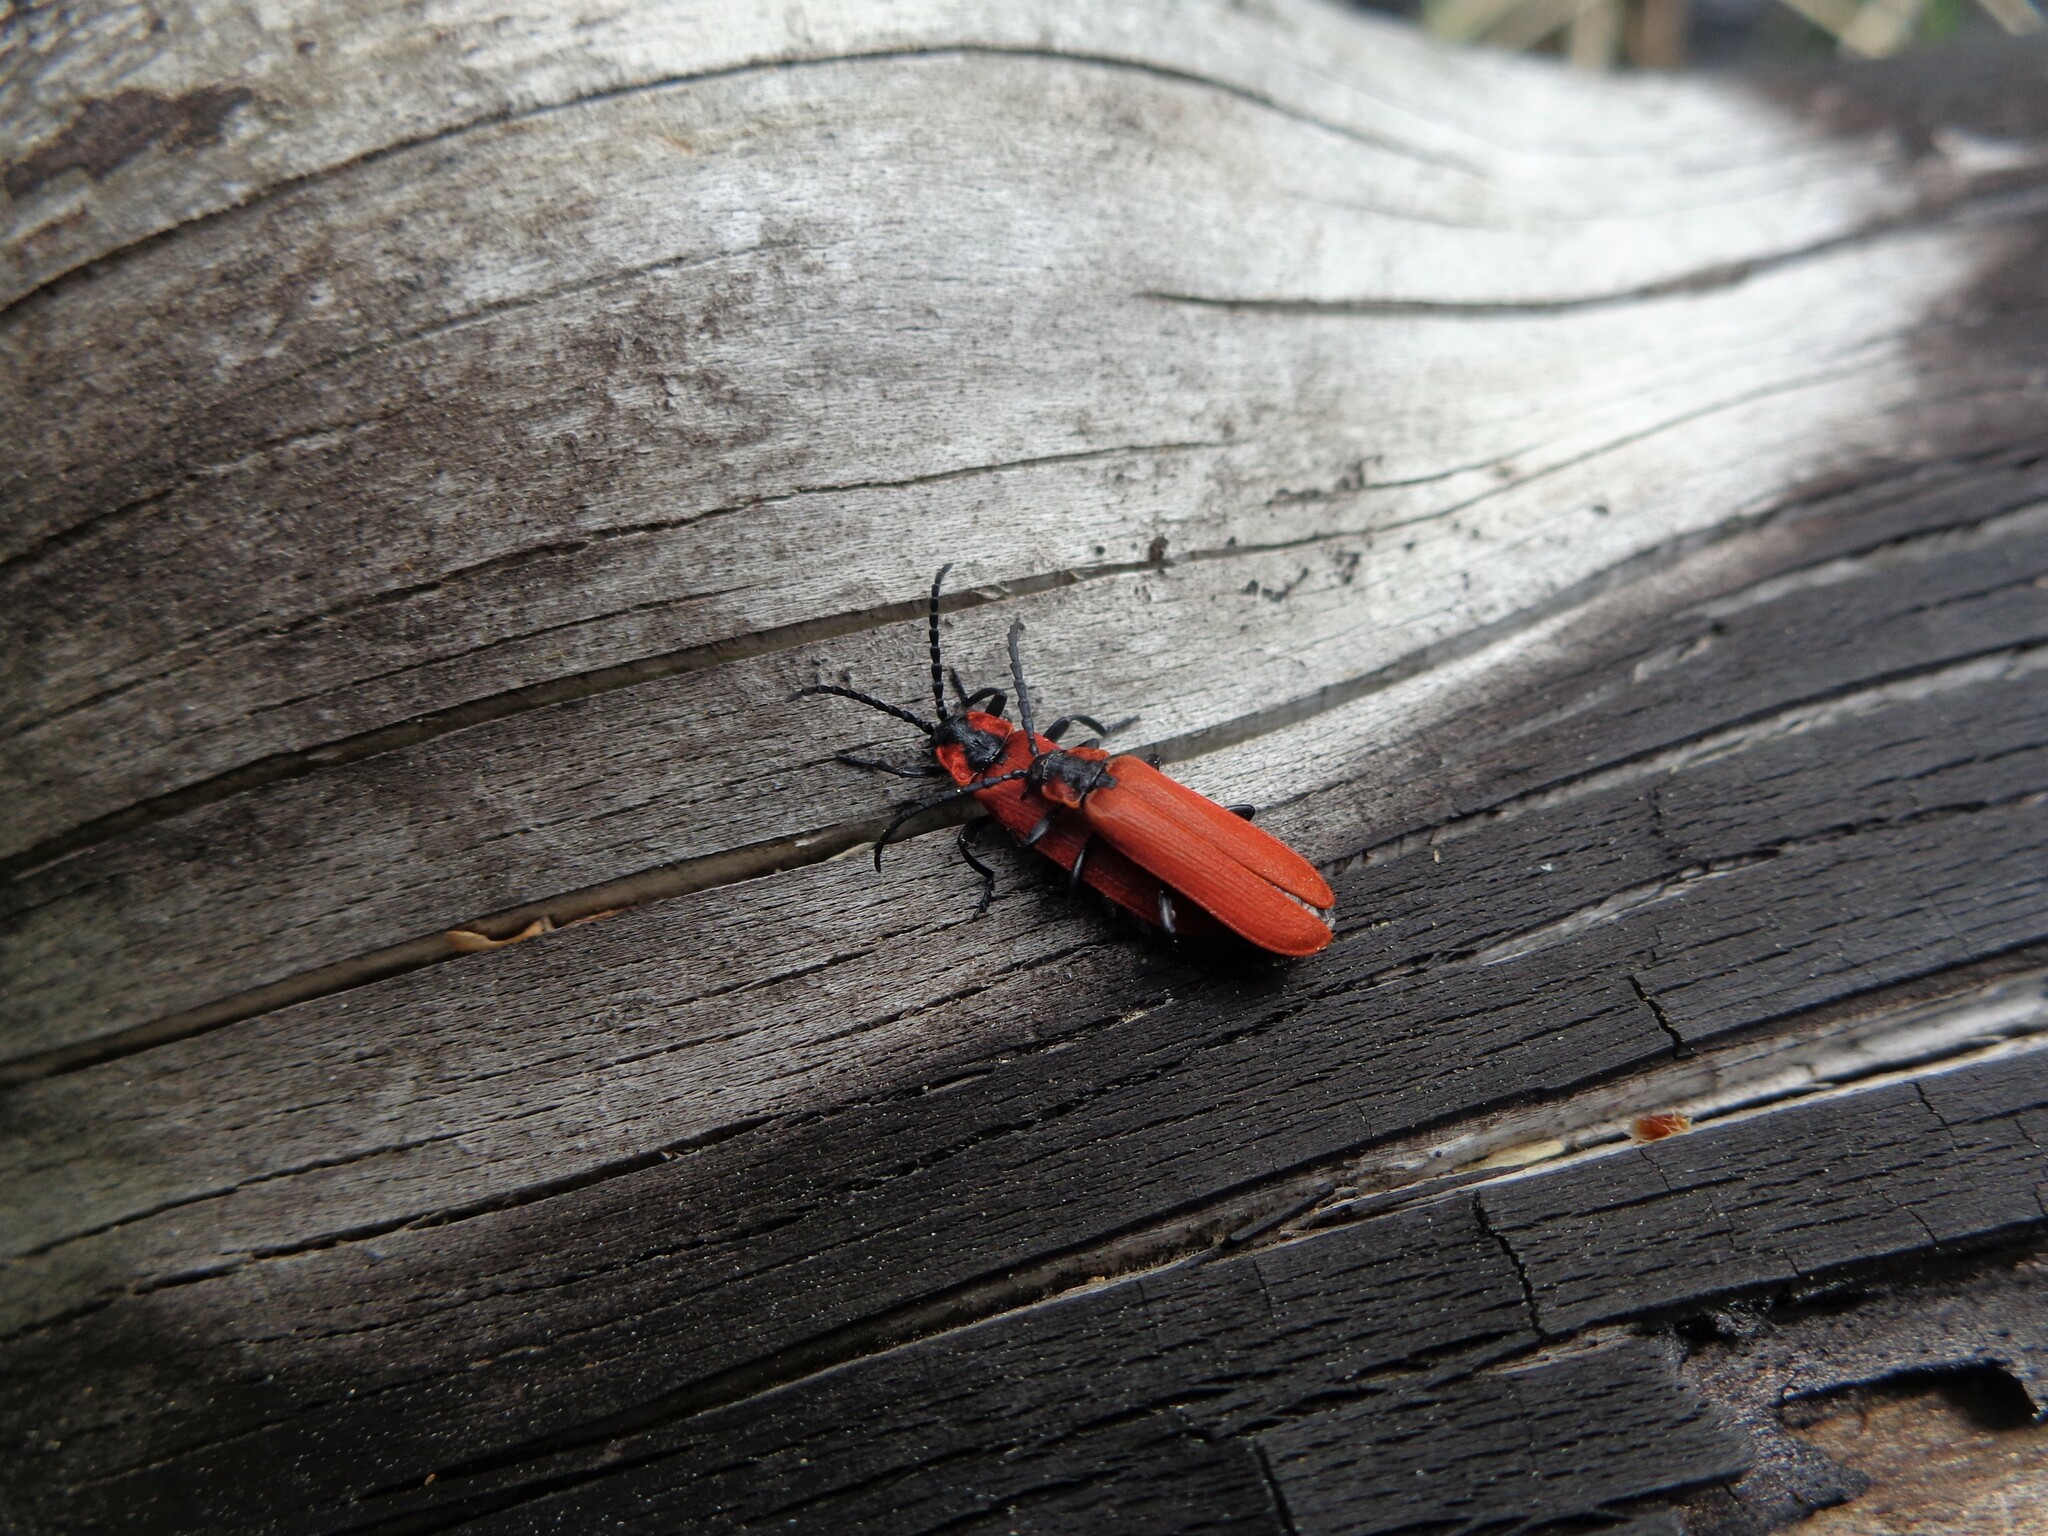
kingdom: Animalia
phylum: Arthropoda
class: Insecta
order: Coleoptera
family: Lycidae
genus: Lygistopterus
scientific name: Lygistopterus sanguineus
